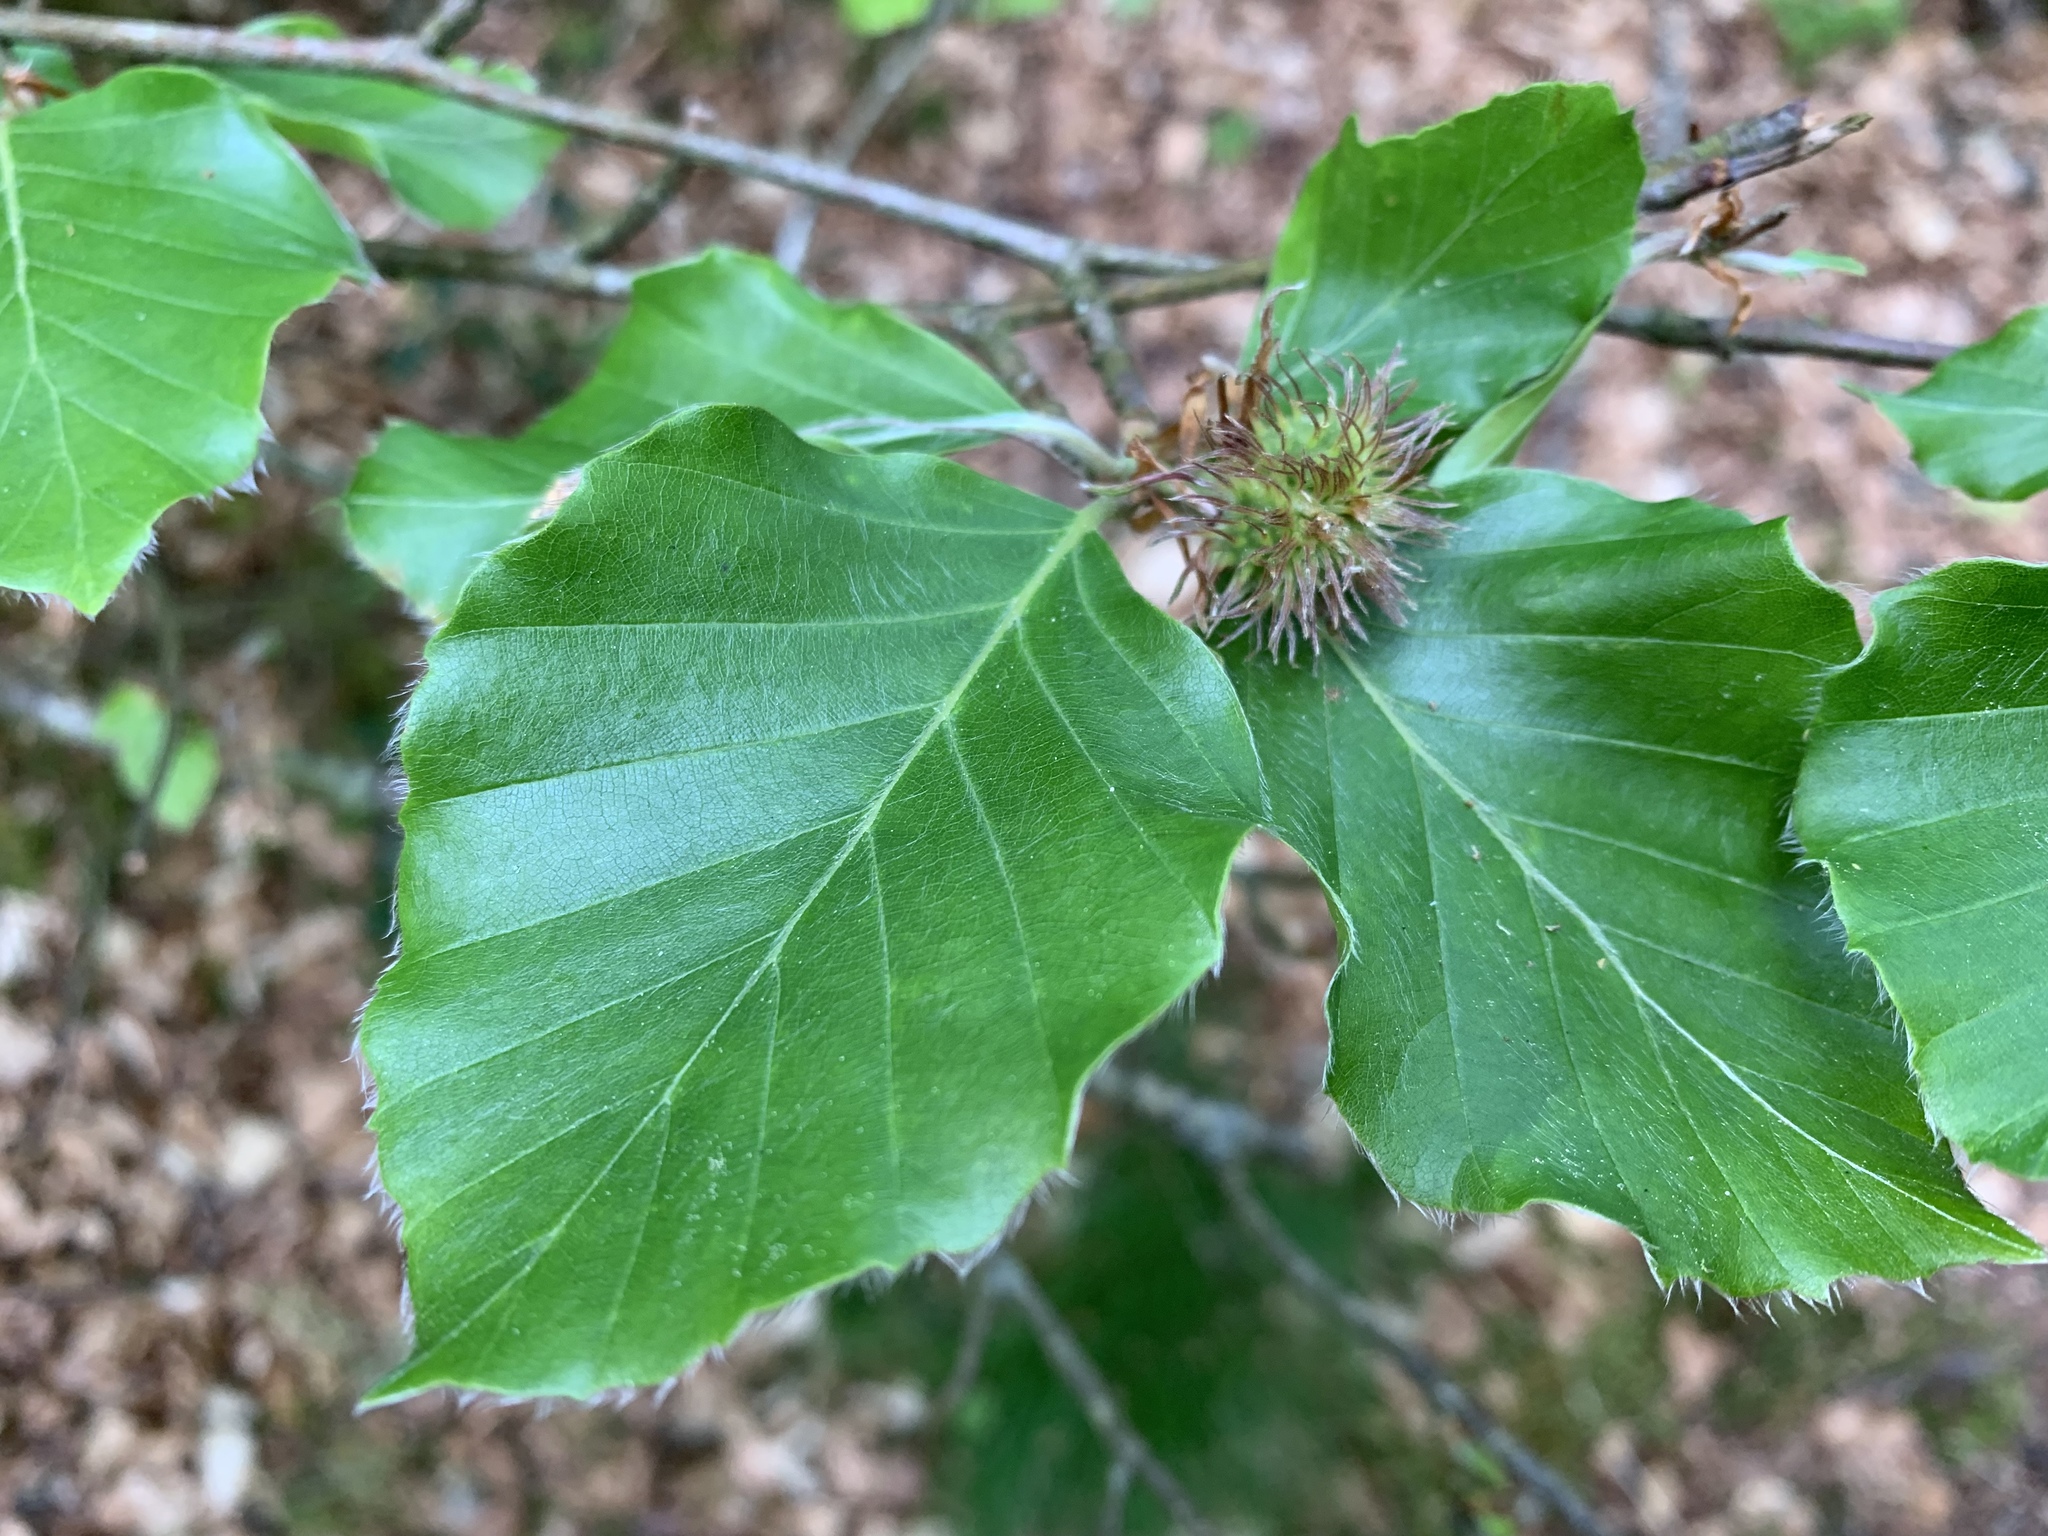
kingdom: Plantae
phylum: Tracheophyta
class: Magnoliopsida
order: Fagales
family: Fagaceae
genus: Fagus
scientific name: Fagus sylvatica
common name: Beech
